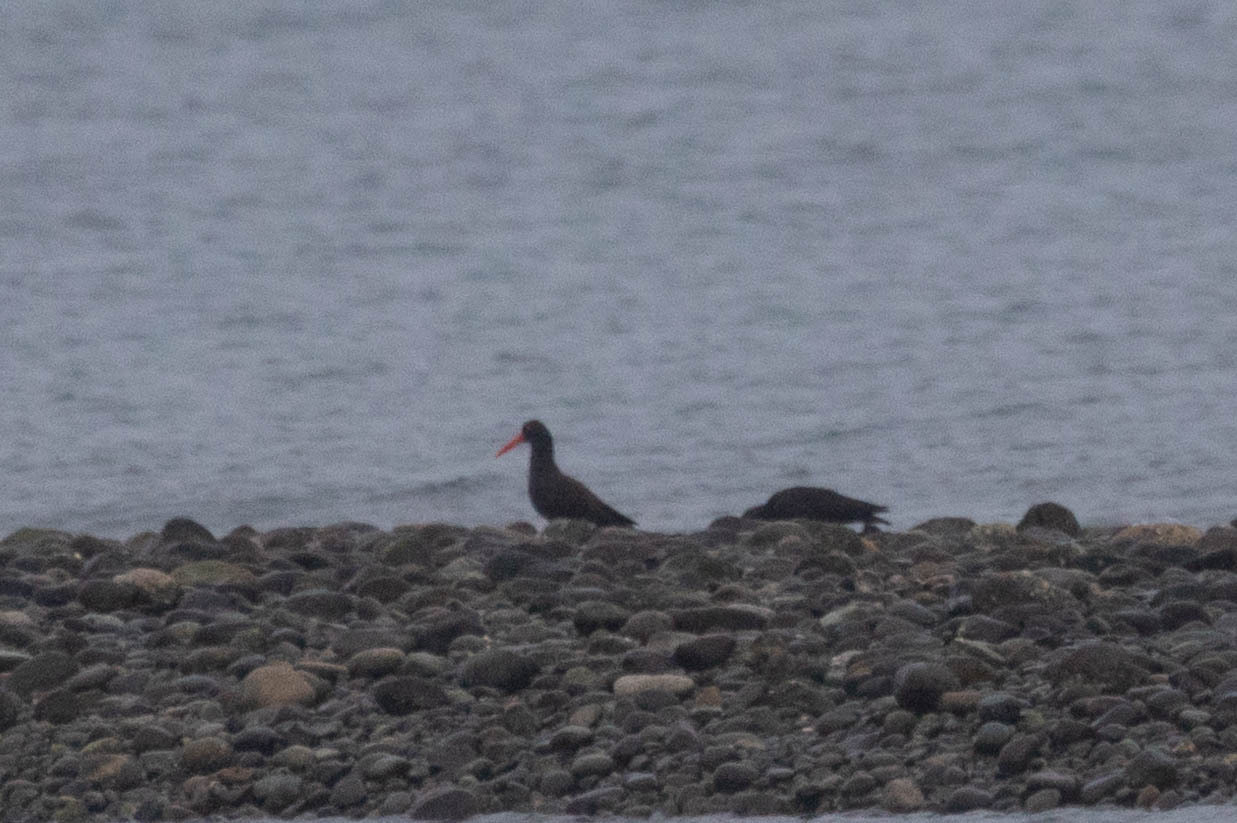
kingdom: Animalia
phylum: Chordata
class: Aves
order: Charadriiformes
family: Haematopodidae
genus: Haematopus
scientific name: Haematopus bachmani
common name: Black oystercatcher
